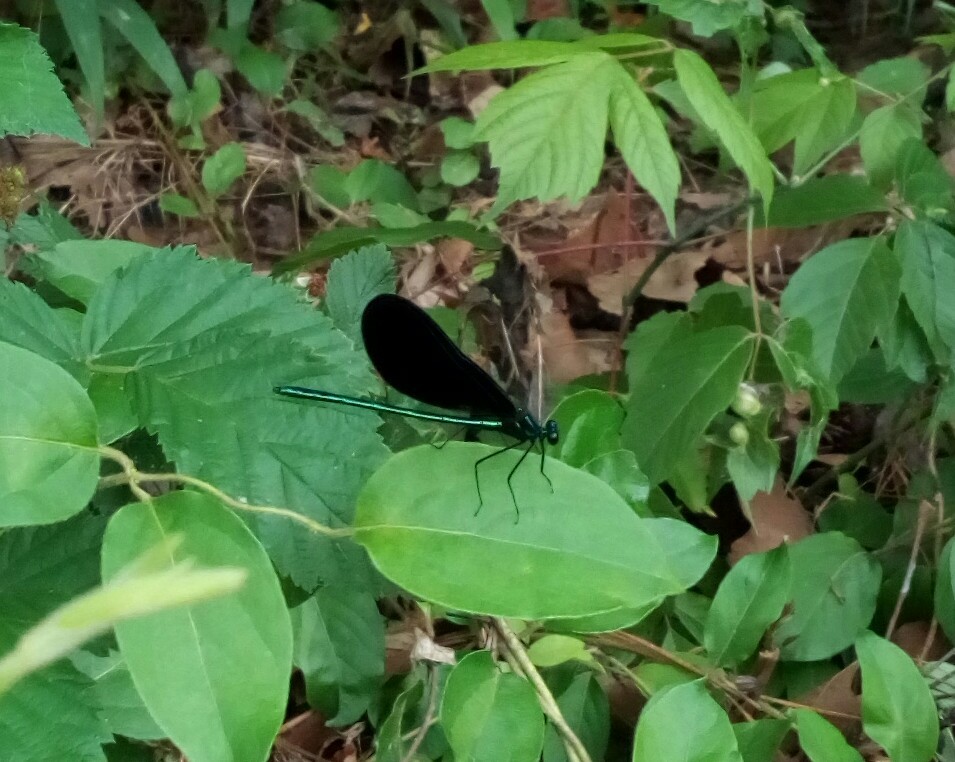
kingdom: Animalia
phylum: Arthropoda
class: Insecta
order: Odonata
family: Calopterygidae
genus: Calopteryx
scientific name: Calopteryx maculata
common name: Ebony jewelwing
